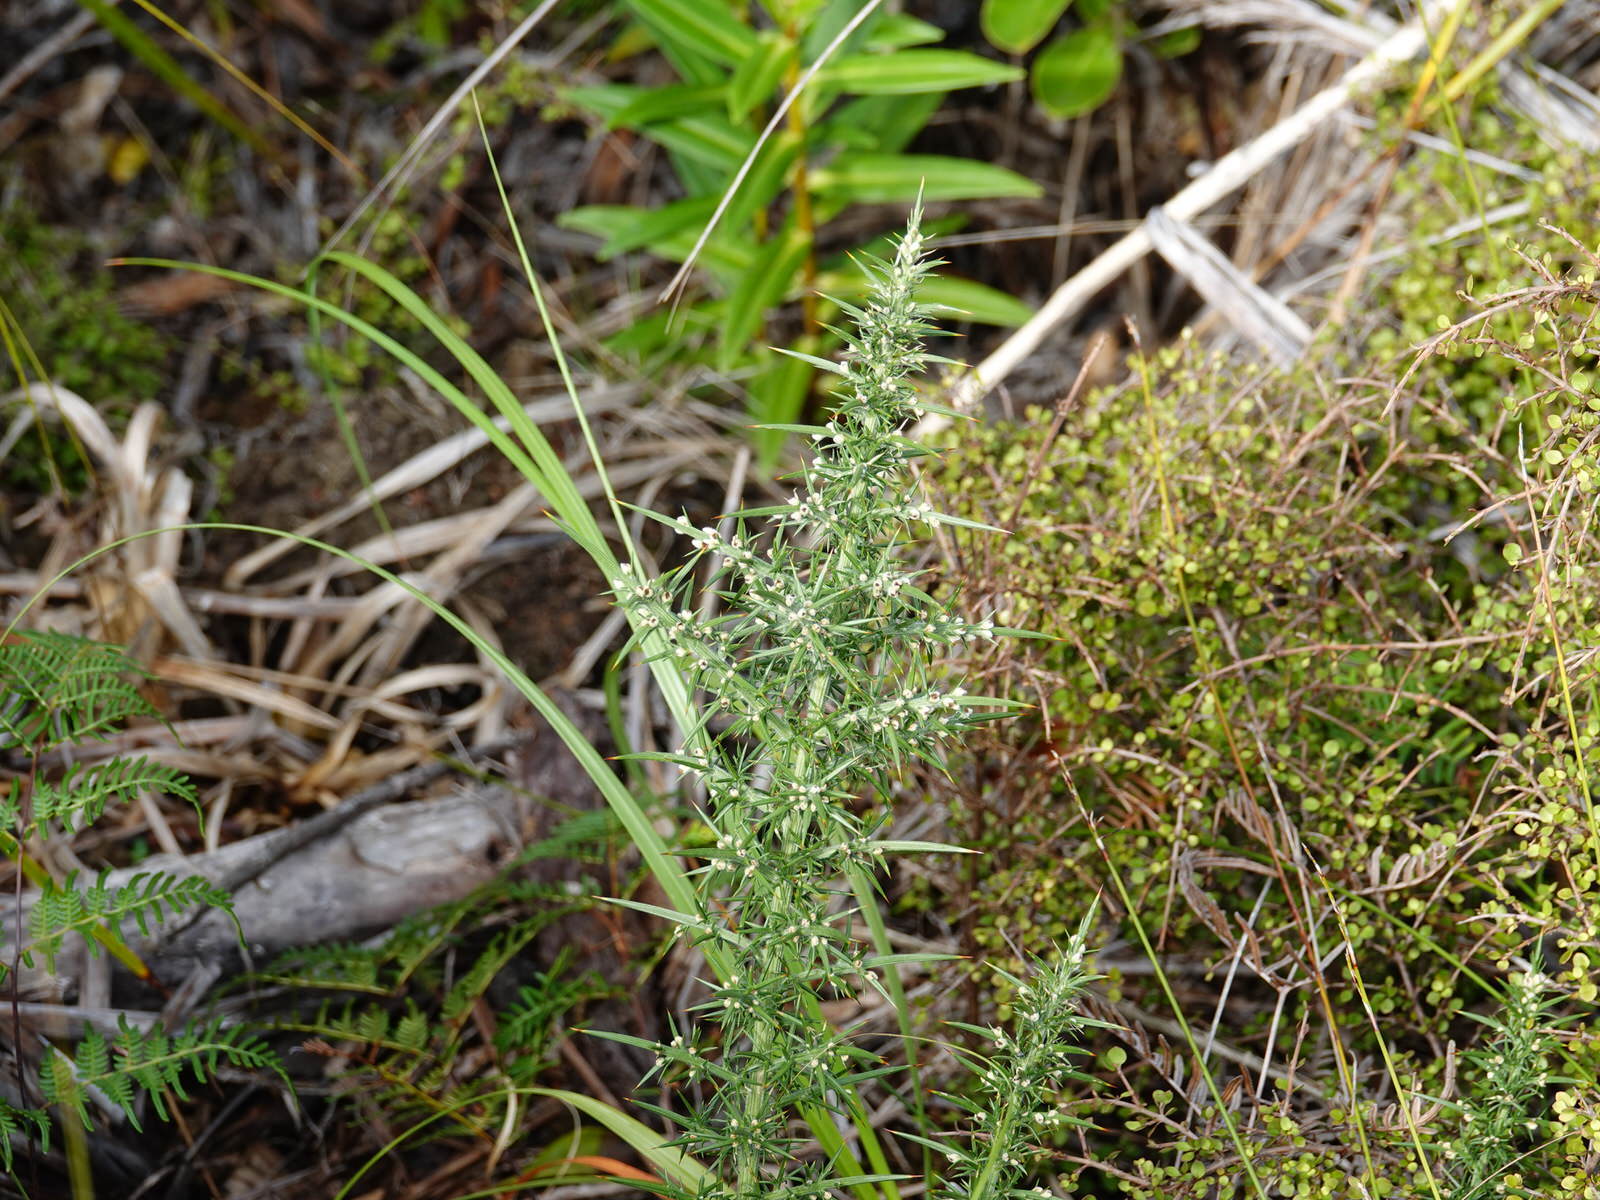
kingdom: Plantae
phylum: Tracheophyta
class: Magnoliopsida
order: Fabales
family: Fabaceae
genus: Ulex
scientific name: Ulex europaeus
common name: Common gorse
